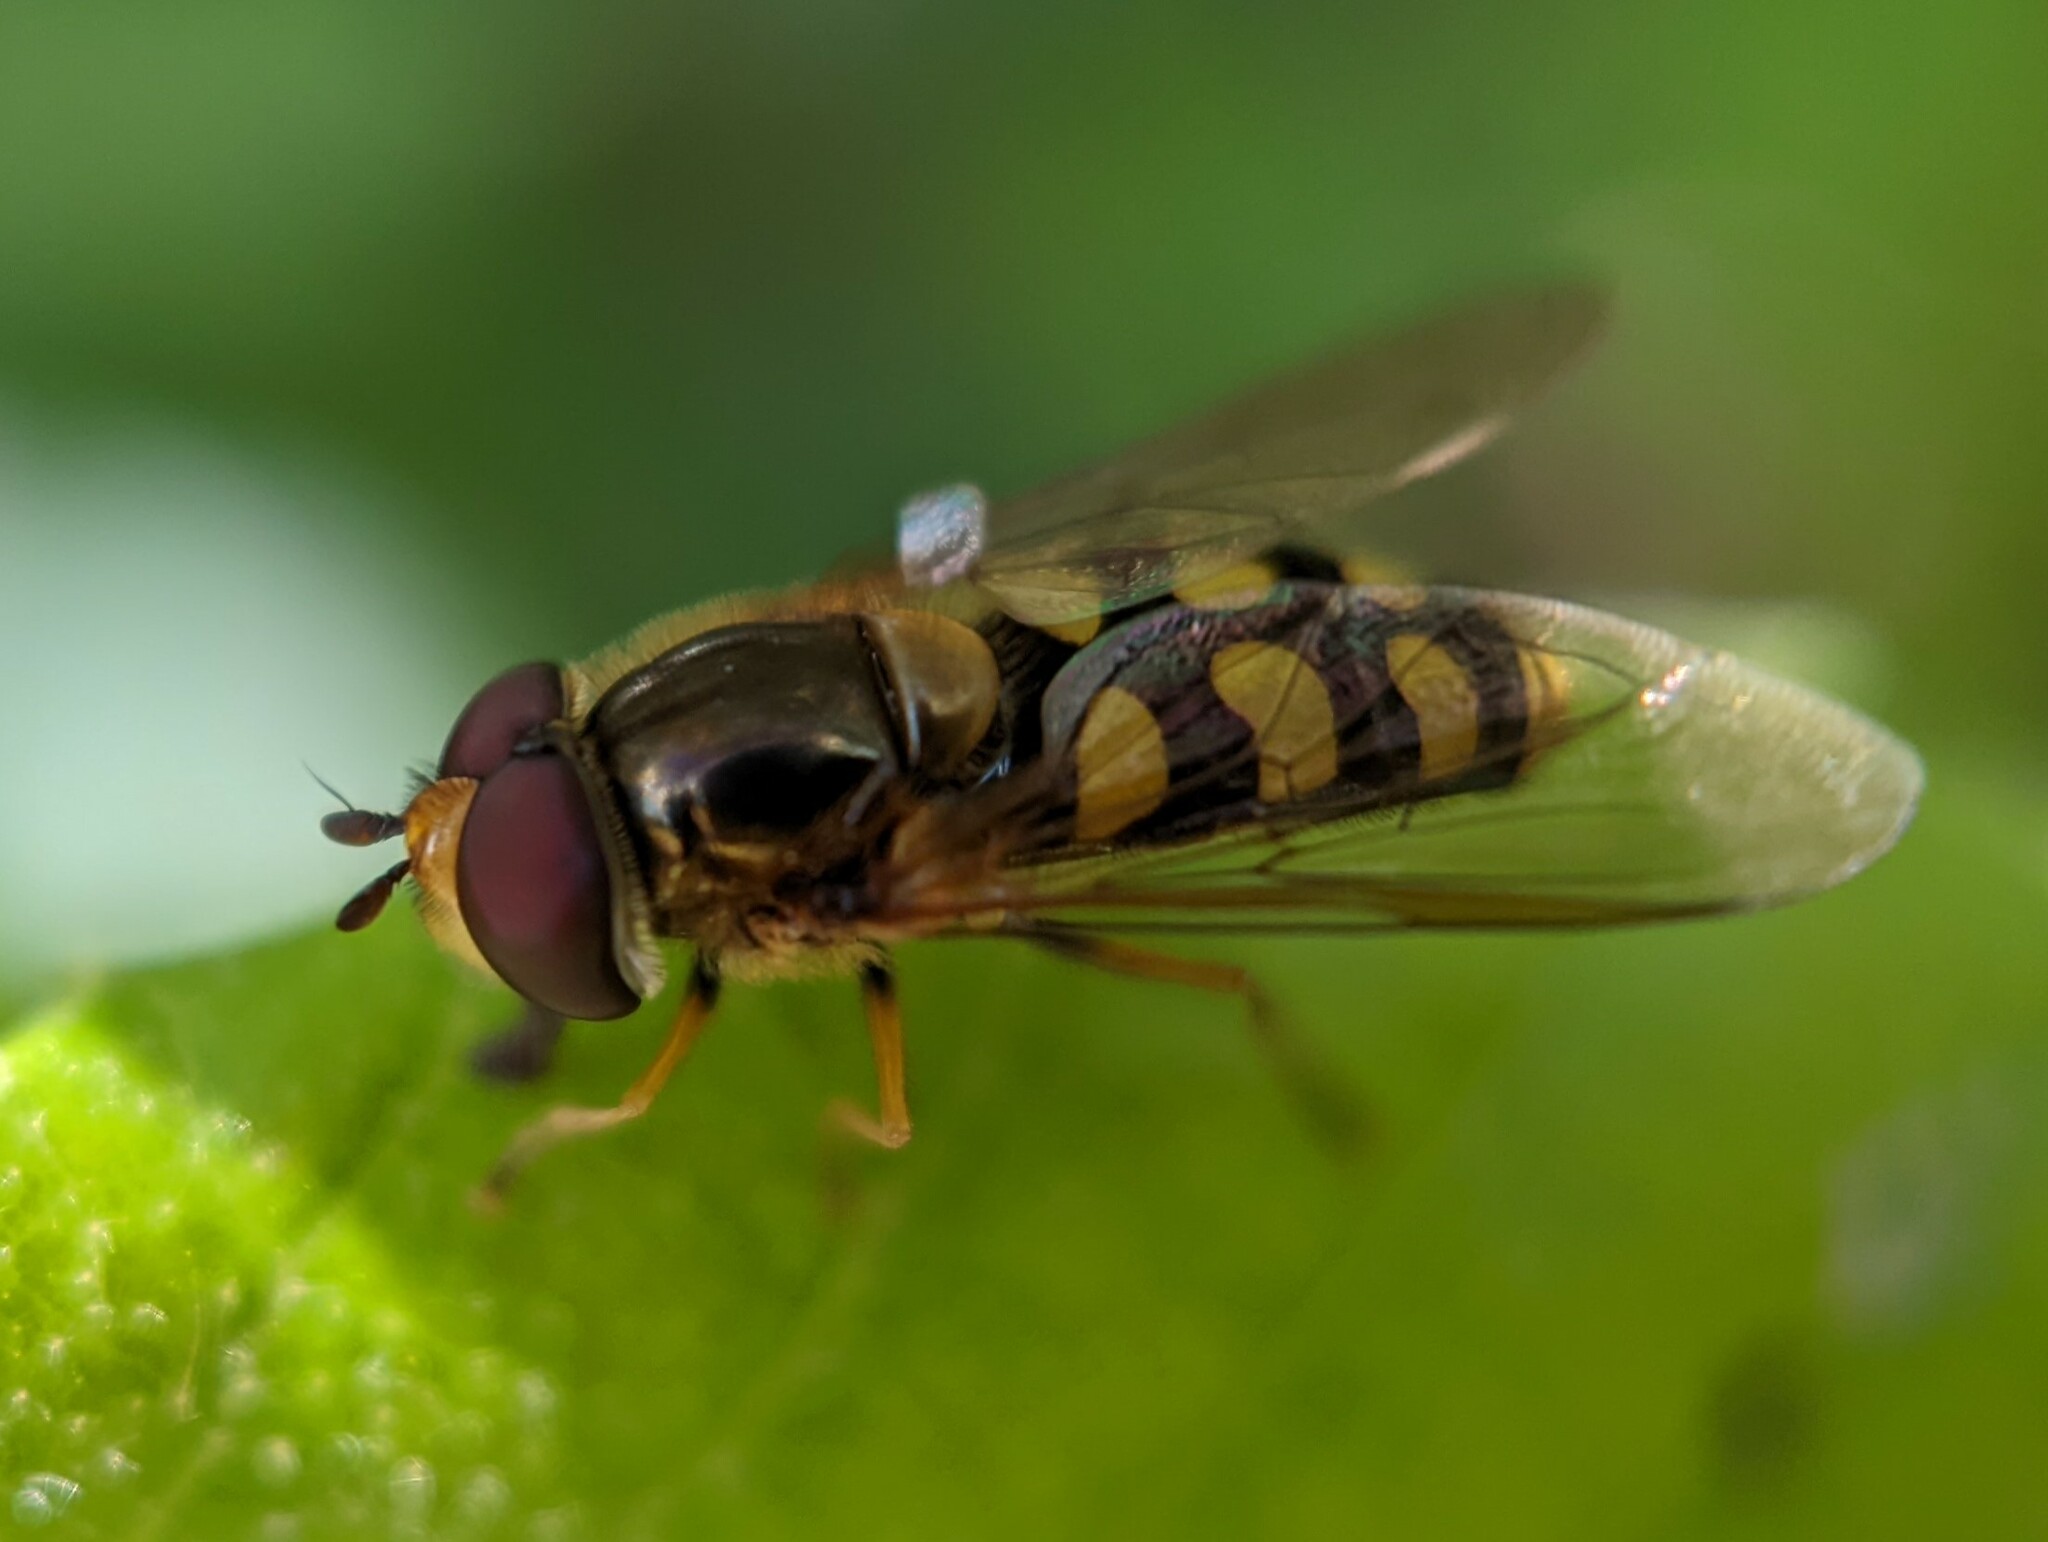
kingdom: Animalia
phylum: Arthropoda
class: Insecta
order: Diptera
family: Syrphidae
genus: Eupeodes
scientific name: Eupeodes
